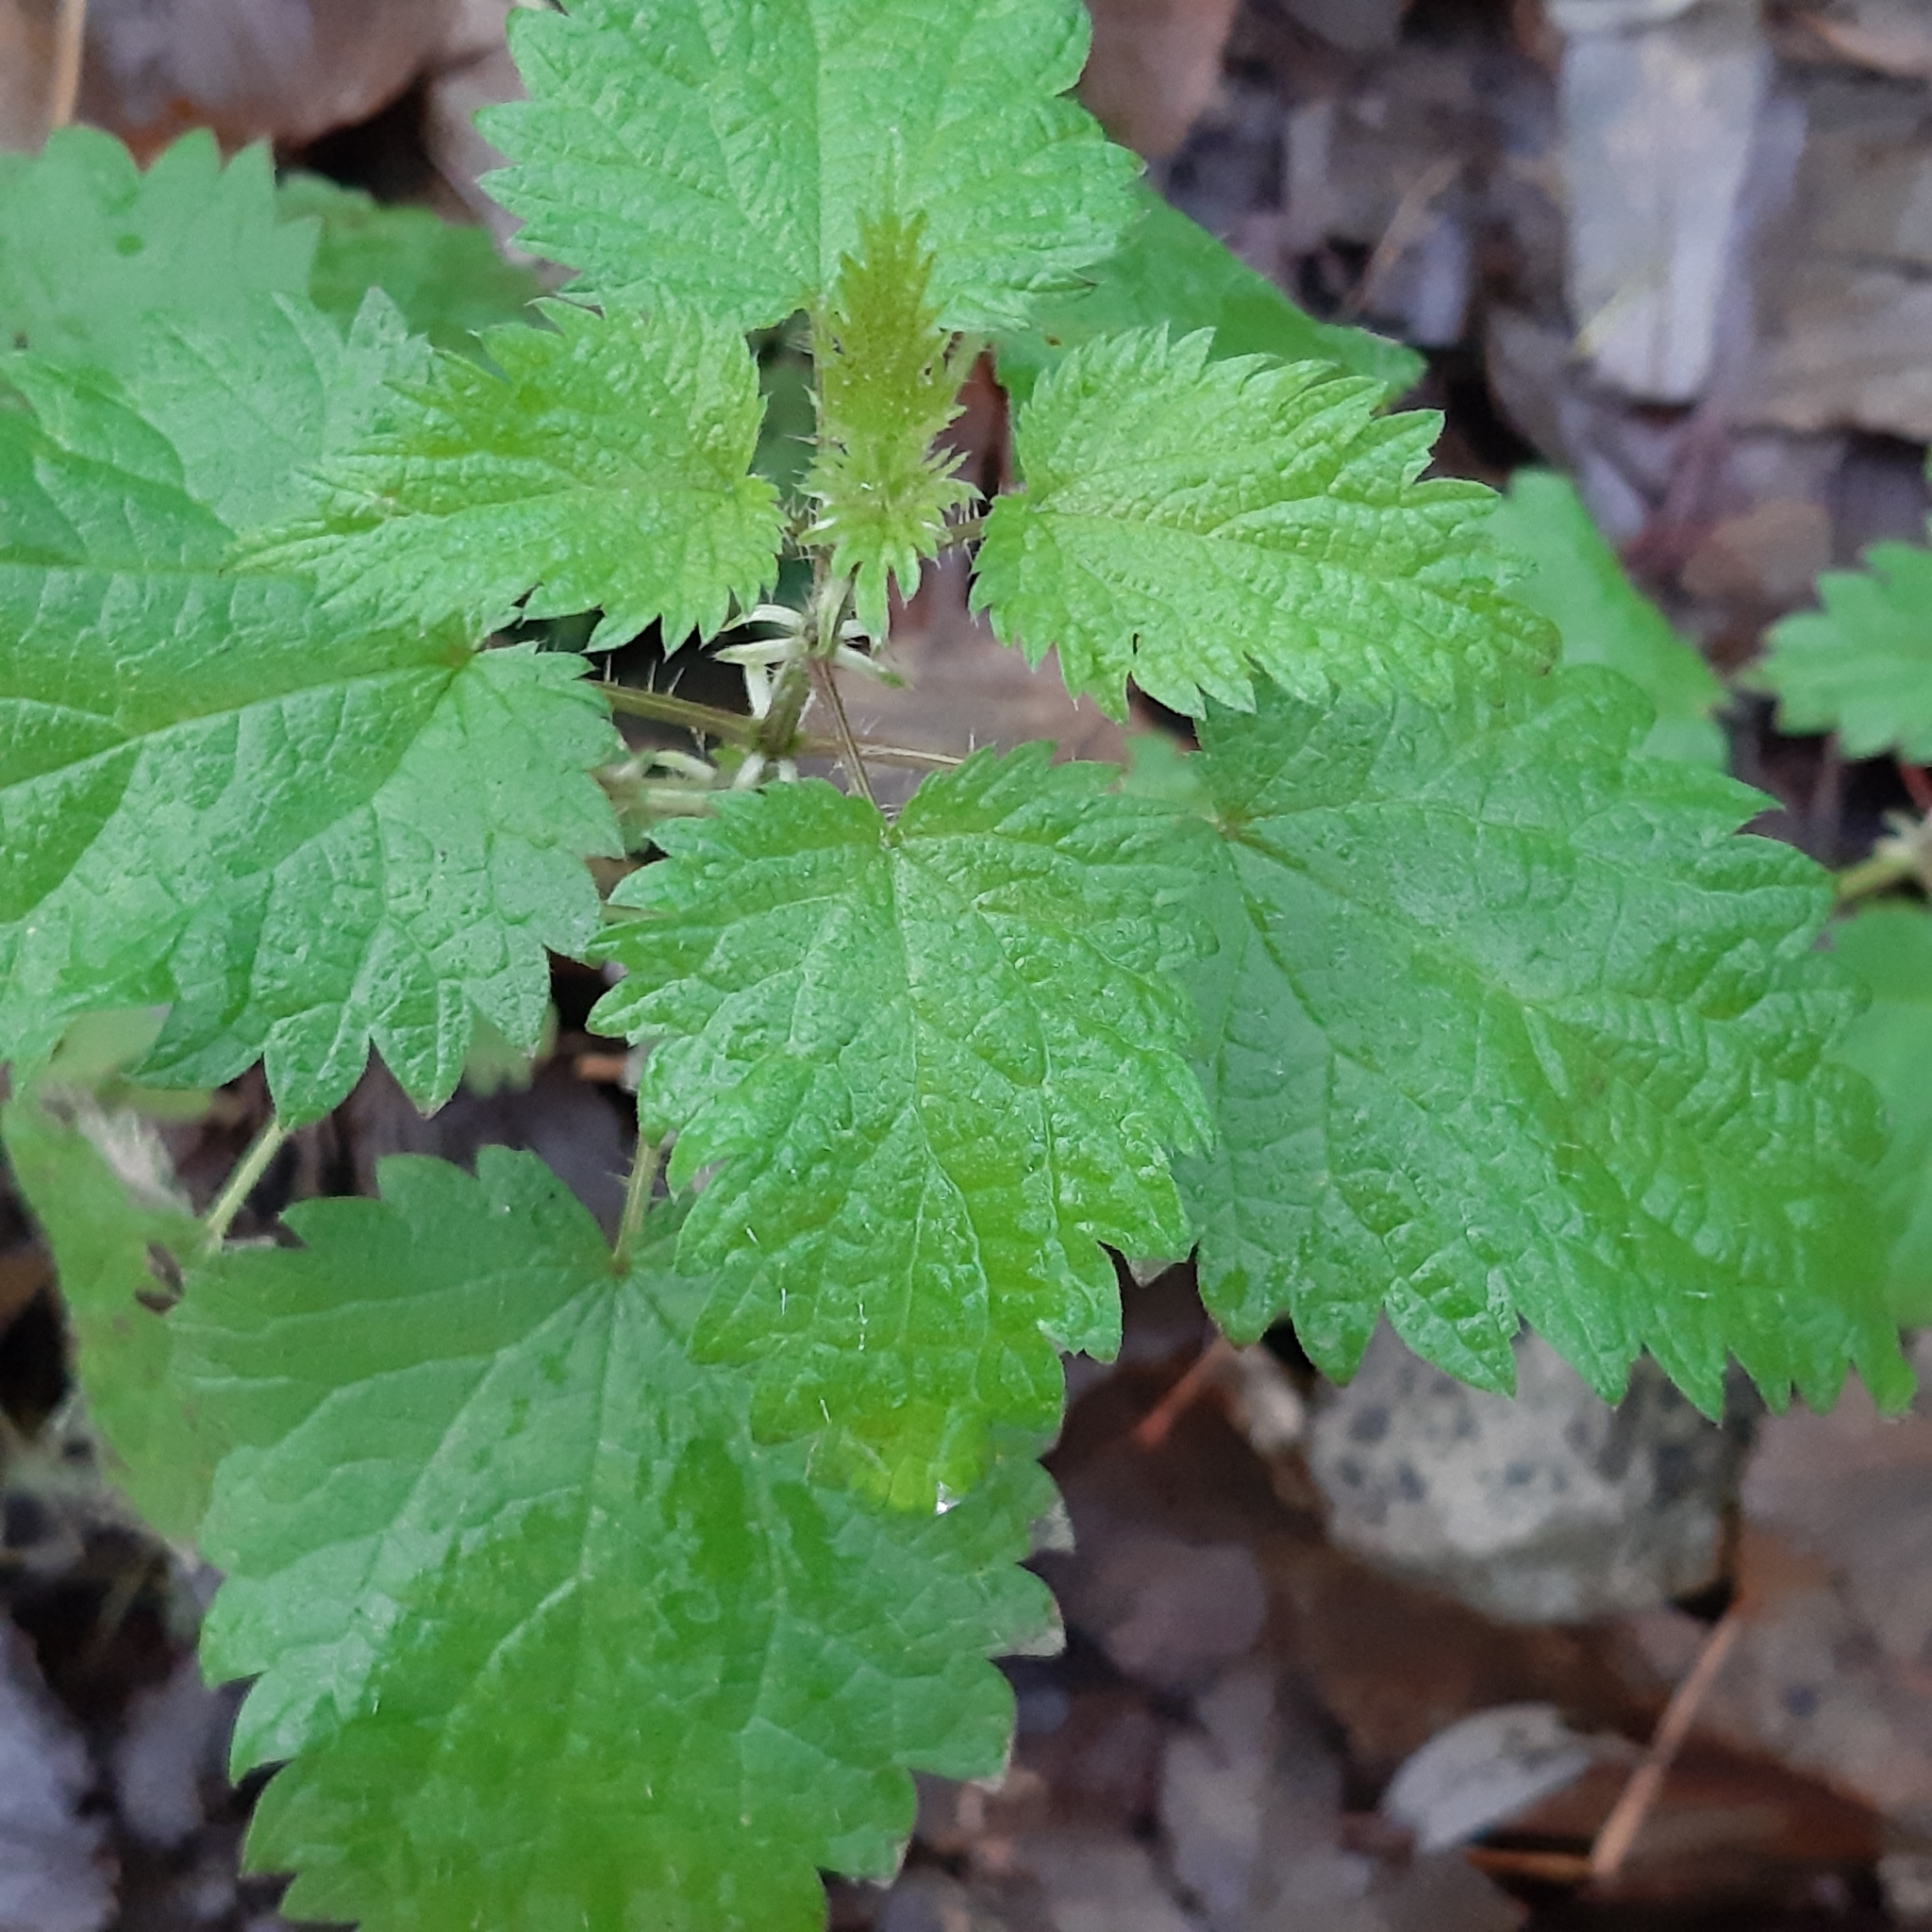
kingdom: Plantae
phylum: Tracheophyta
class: Magnoliopsida
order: Rosales
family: Urticaceae
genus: Urtica
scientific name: Urtica dioica
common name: Common nettle
